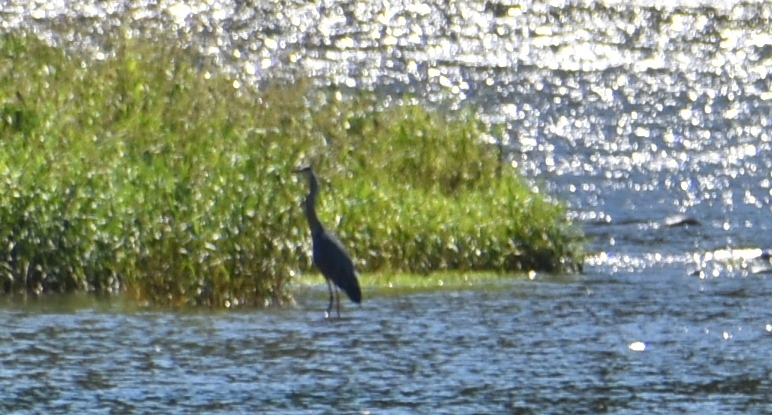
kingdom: Animalia
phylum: Chordata
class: Aves
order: Pelecaniformes
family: Ardeidae
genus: Ardea
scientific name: Ardea cinerea
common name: Grey heron
